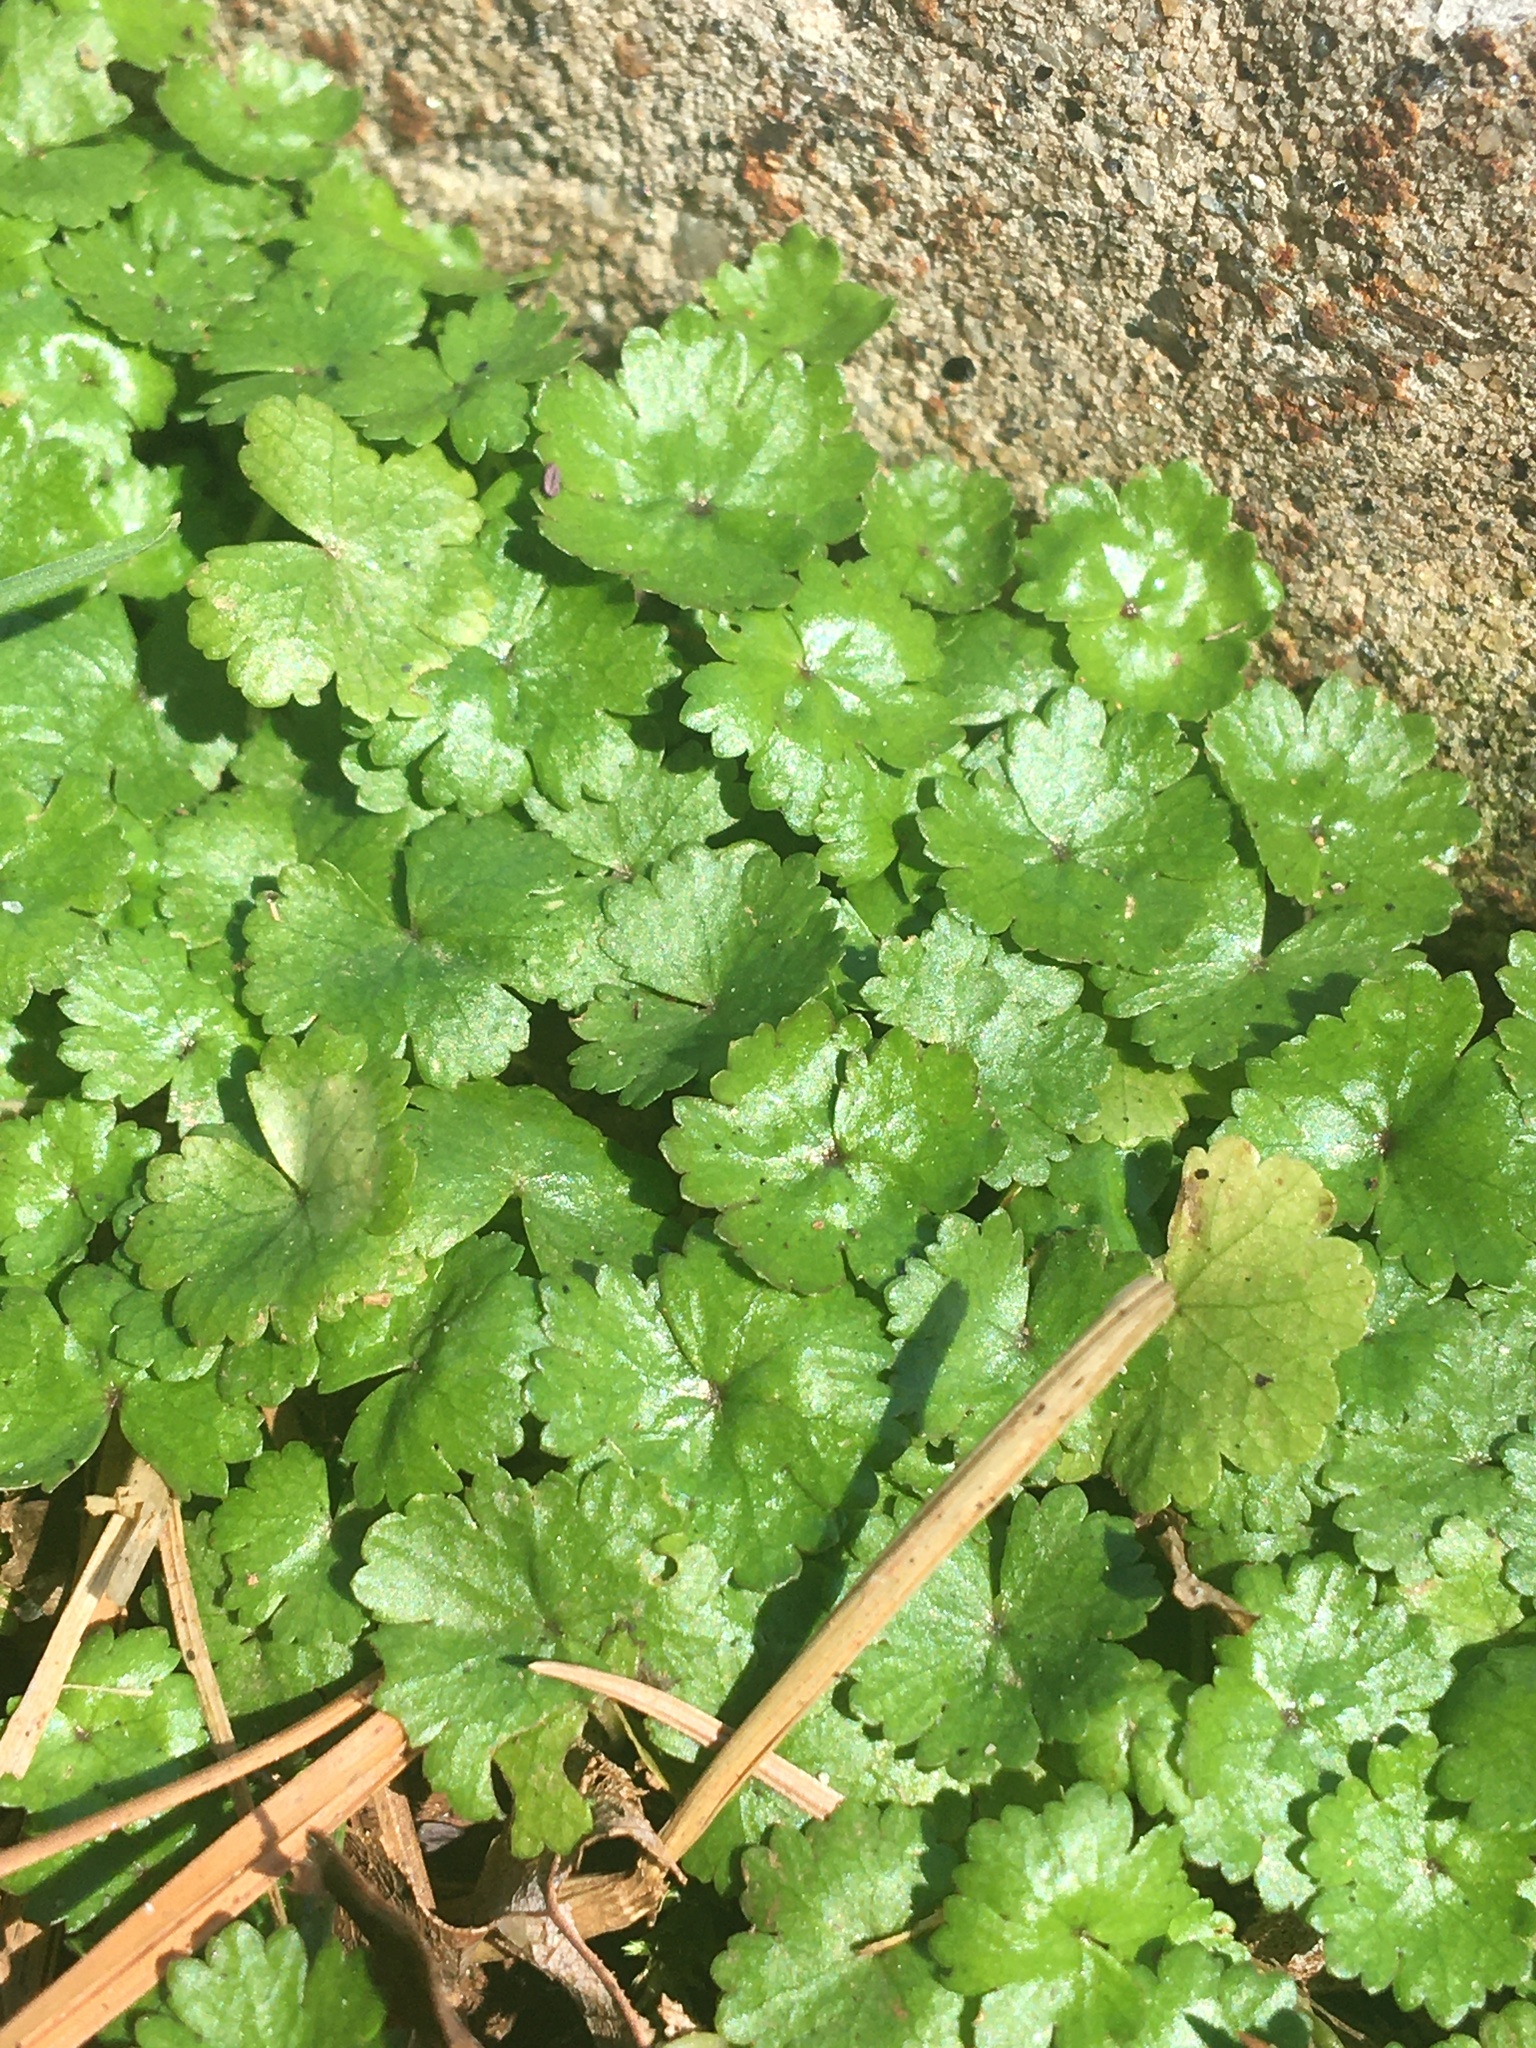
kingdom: Plantae
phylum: Tracheophyta
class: Magnoliopsida
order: Apiales
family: Araliaceae
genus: Hydrocotyle
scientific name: Hydrocotyle sibthorpioides
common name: Lawn marshpennywort
